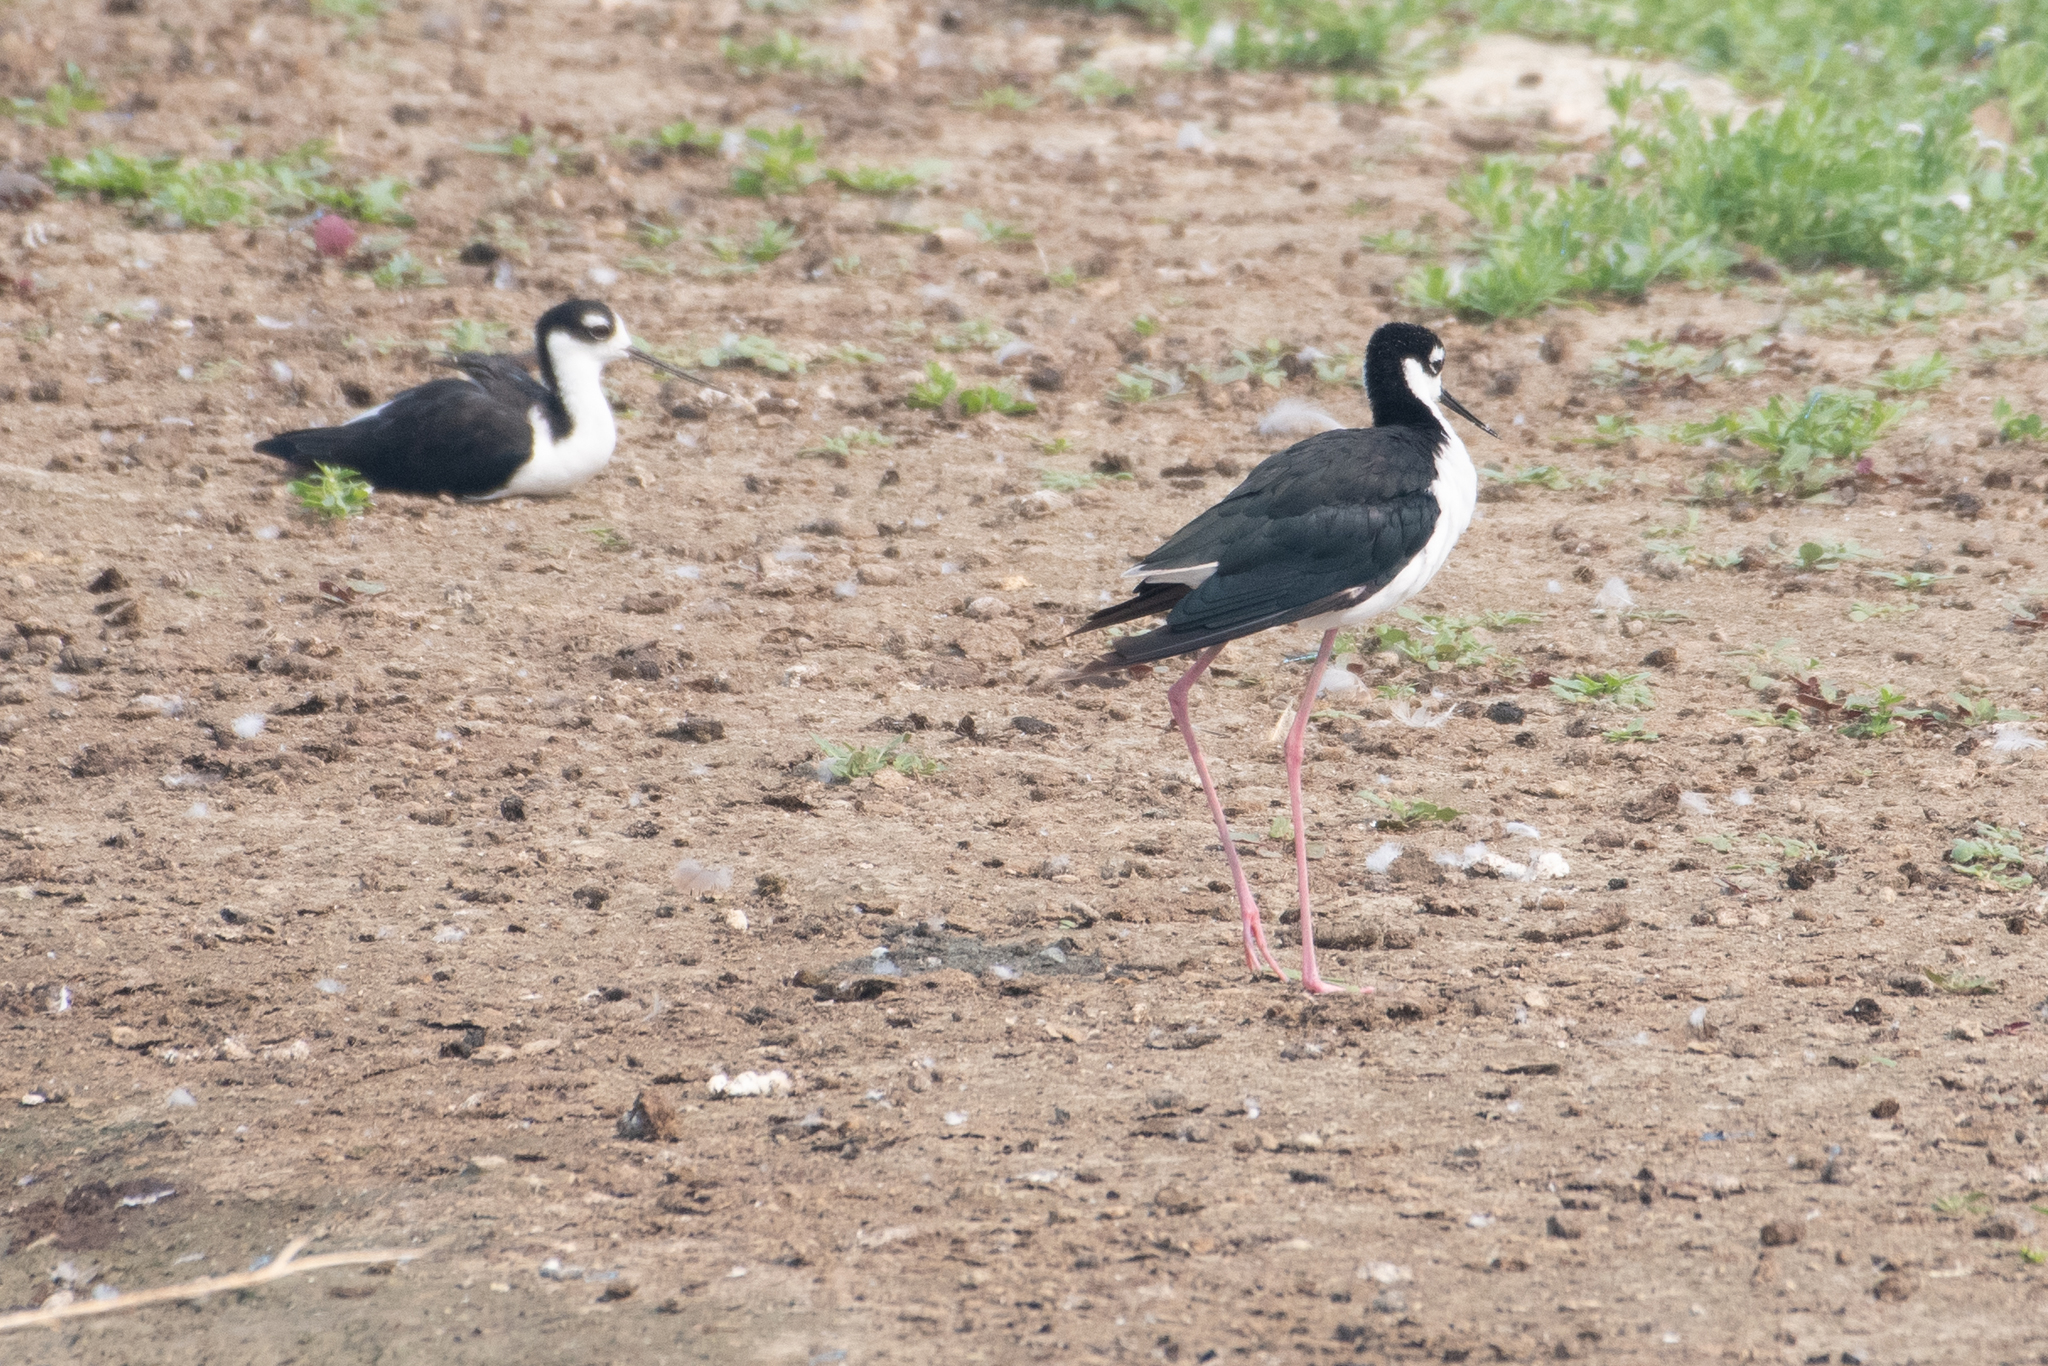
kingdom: Animalia
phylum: Chordata
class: Aves
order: Charadriiformes
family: Recurvirostridae
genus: Himantopus
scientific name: Himantopus mexicanus
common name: Black-necked stilt
